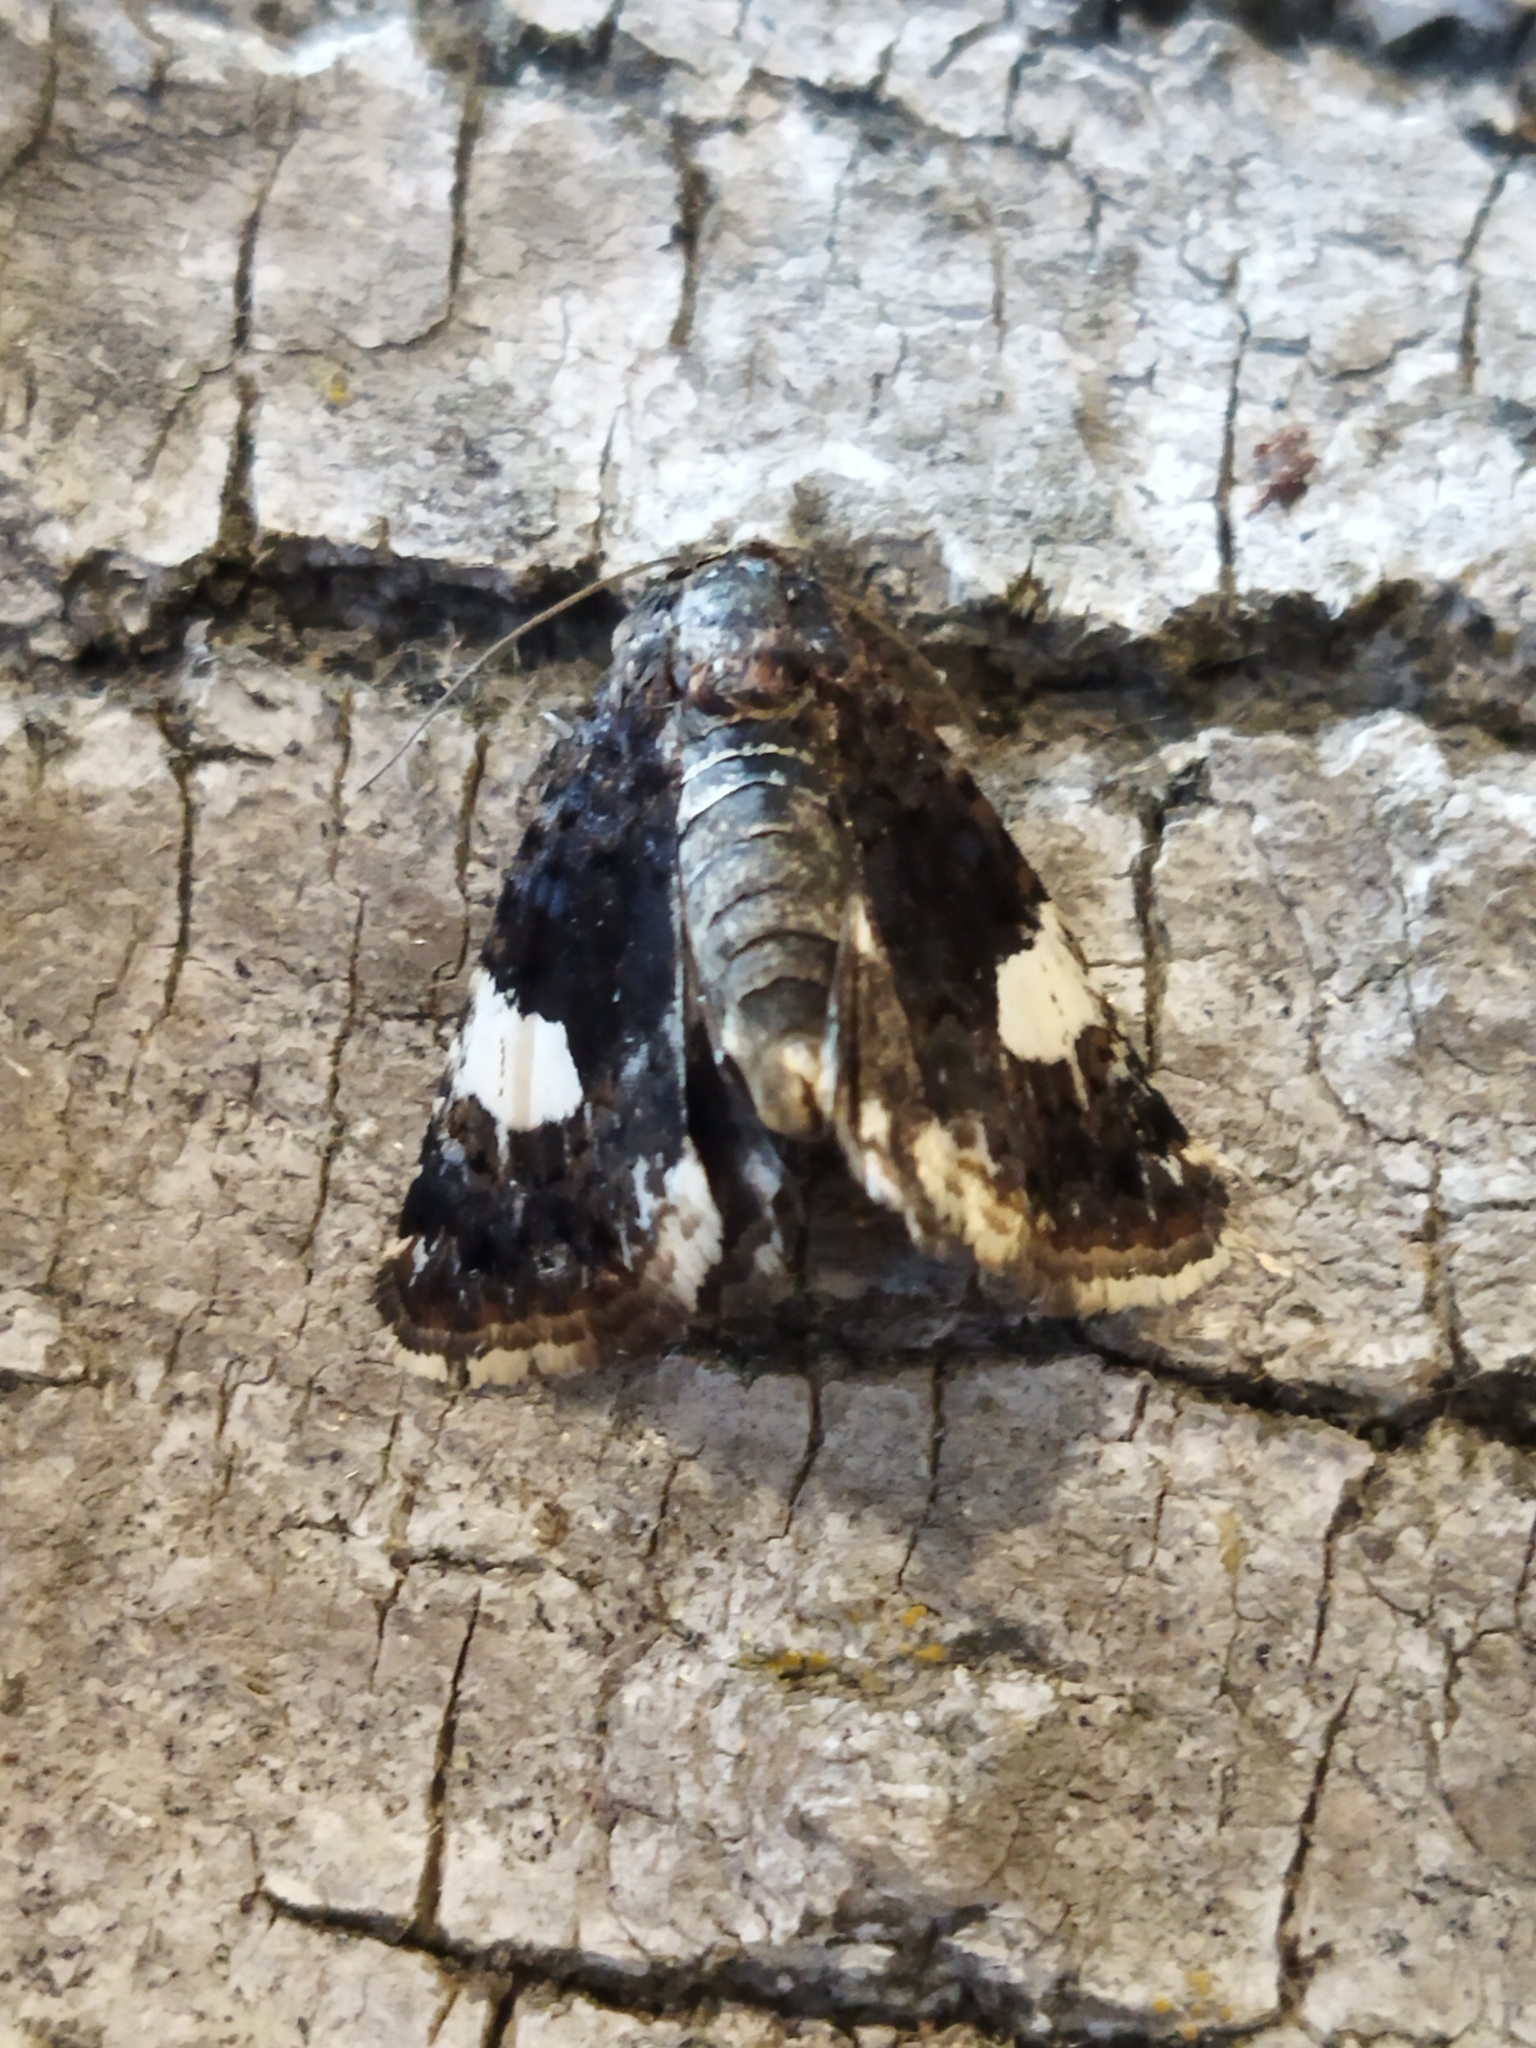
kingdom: Animalia
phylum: Arthropoda
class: Insecta
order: Lepidoptera
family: Erebidae
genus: Tyta
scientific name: Tyta luctuosa
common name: Four-spotted
